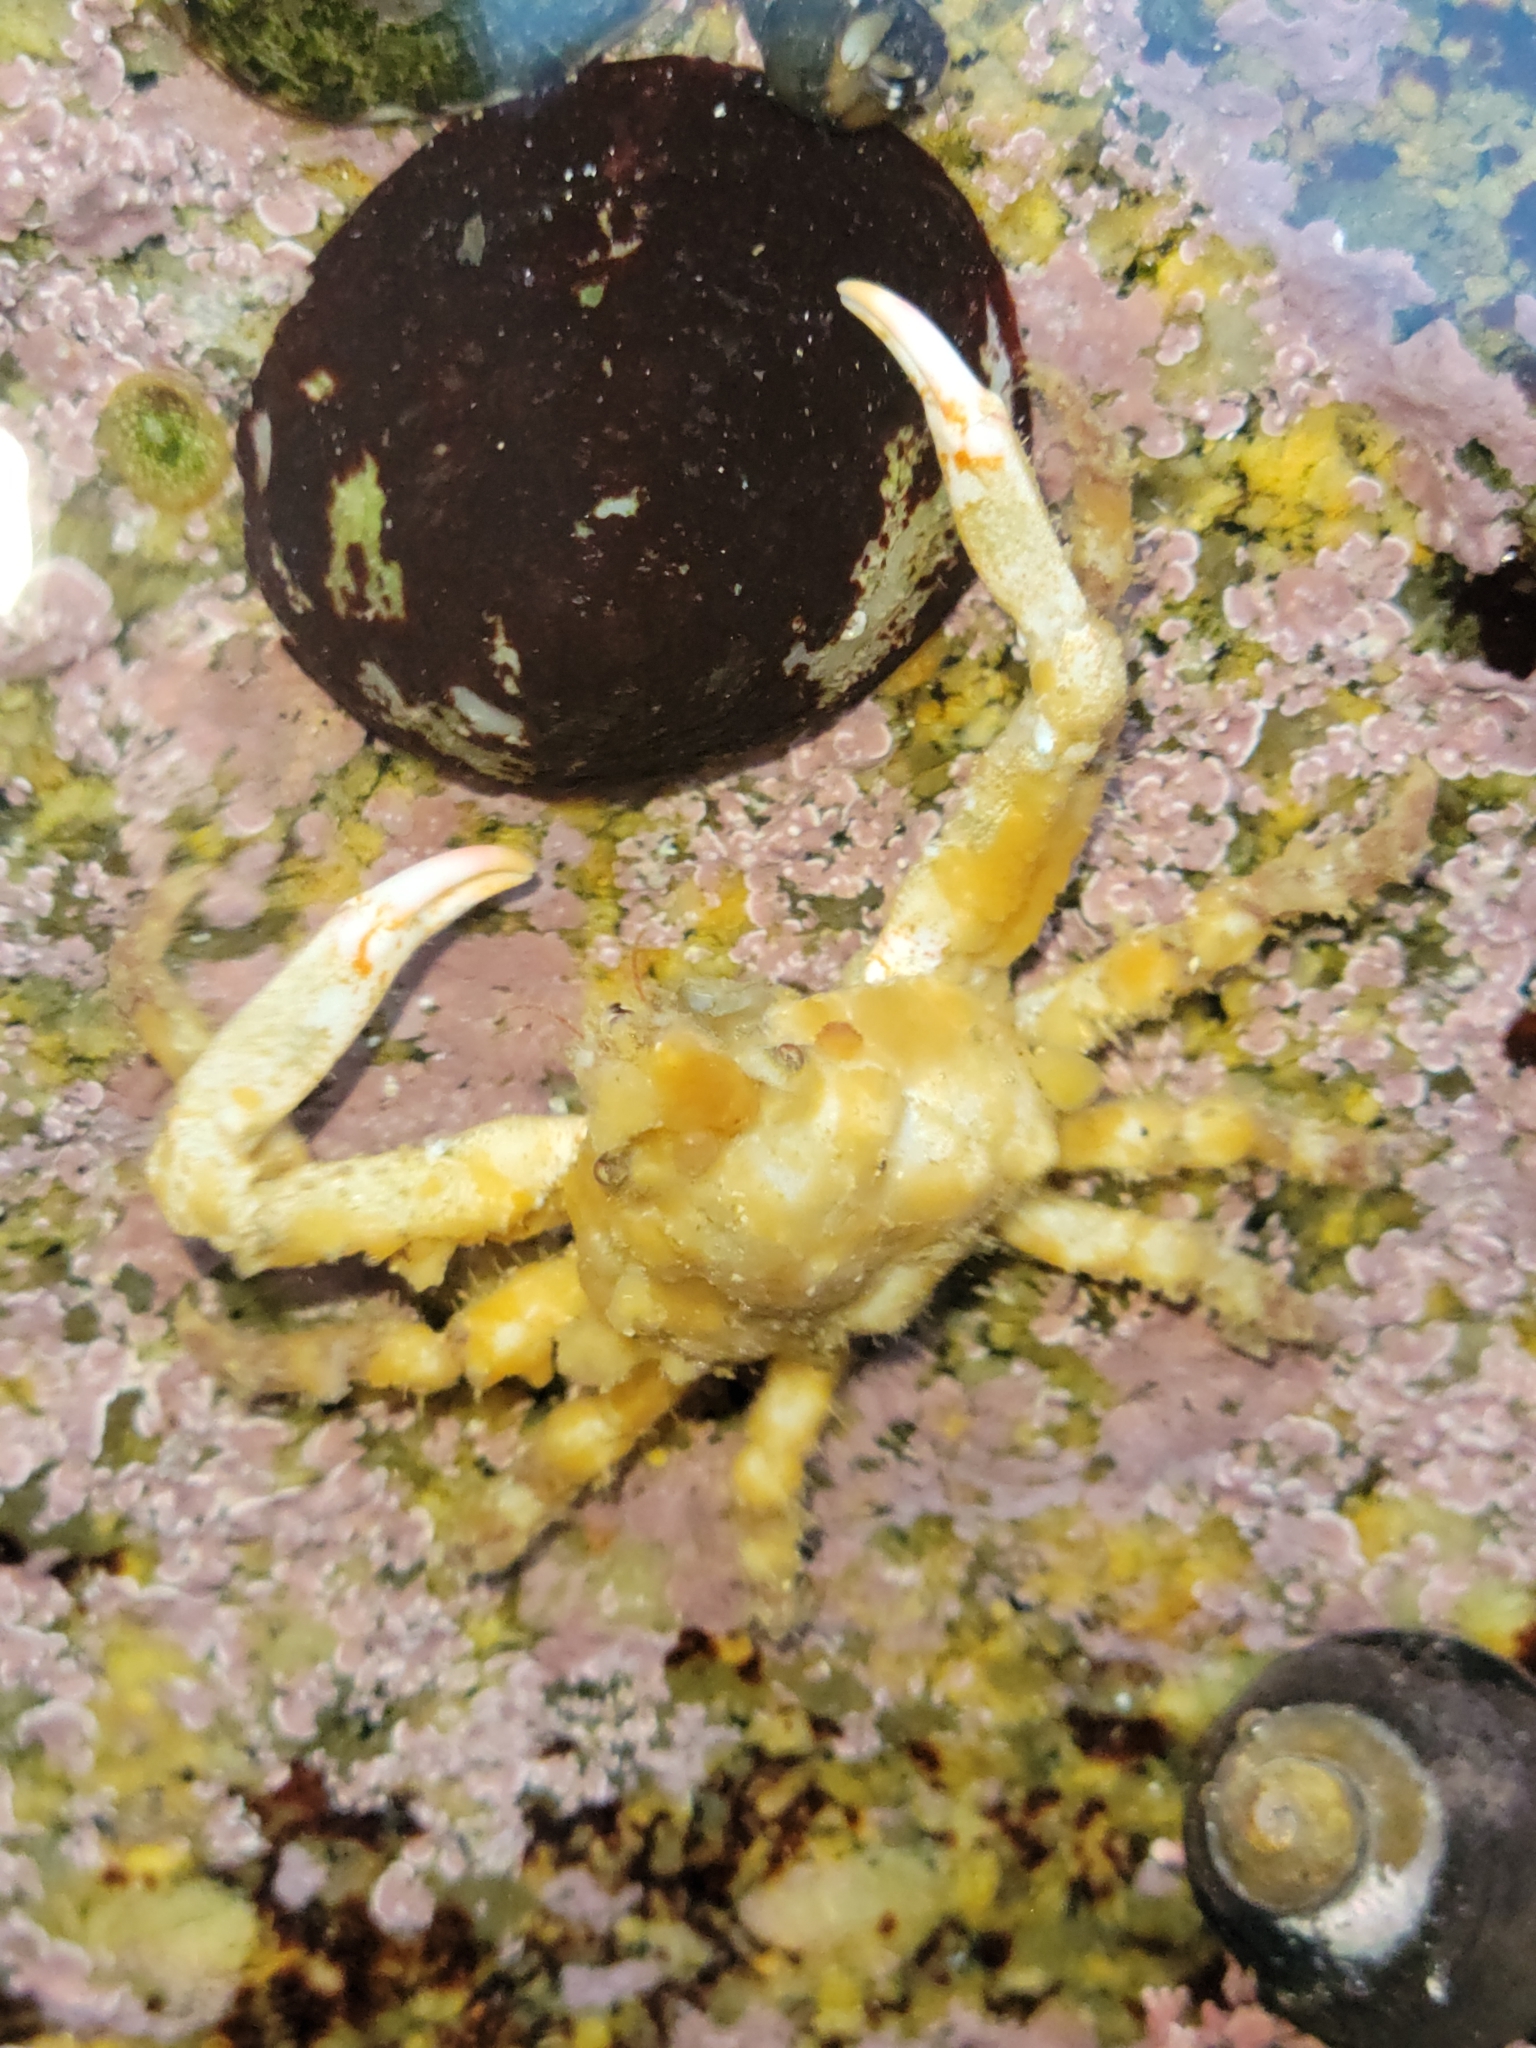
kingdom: Animalia
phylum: Arthropoda
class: Malacostraca
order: Decapoda
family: Epialtidae
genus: Scyra
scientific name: Scyra acutifrons
